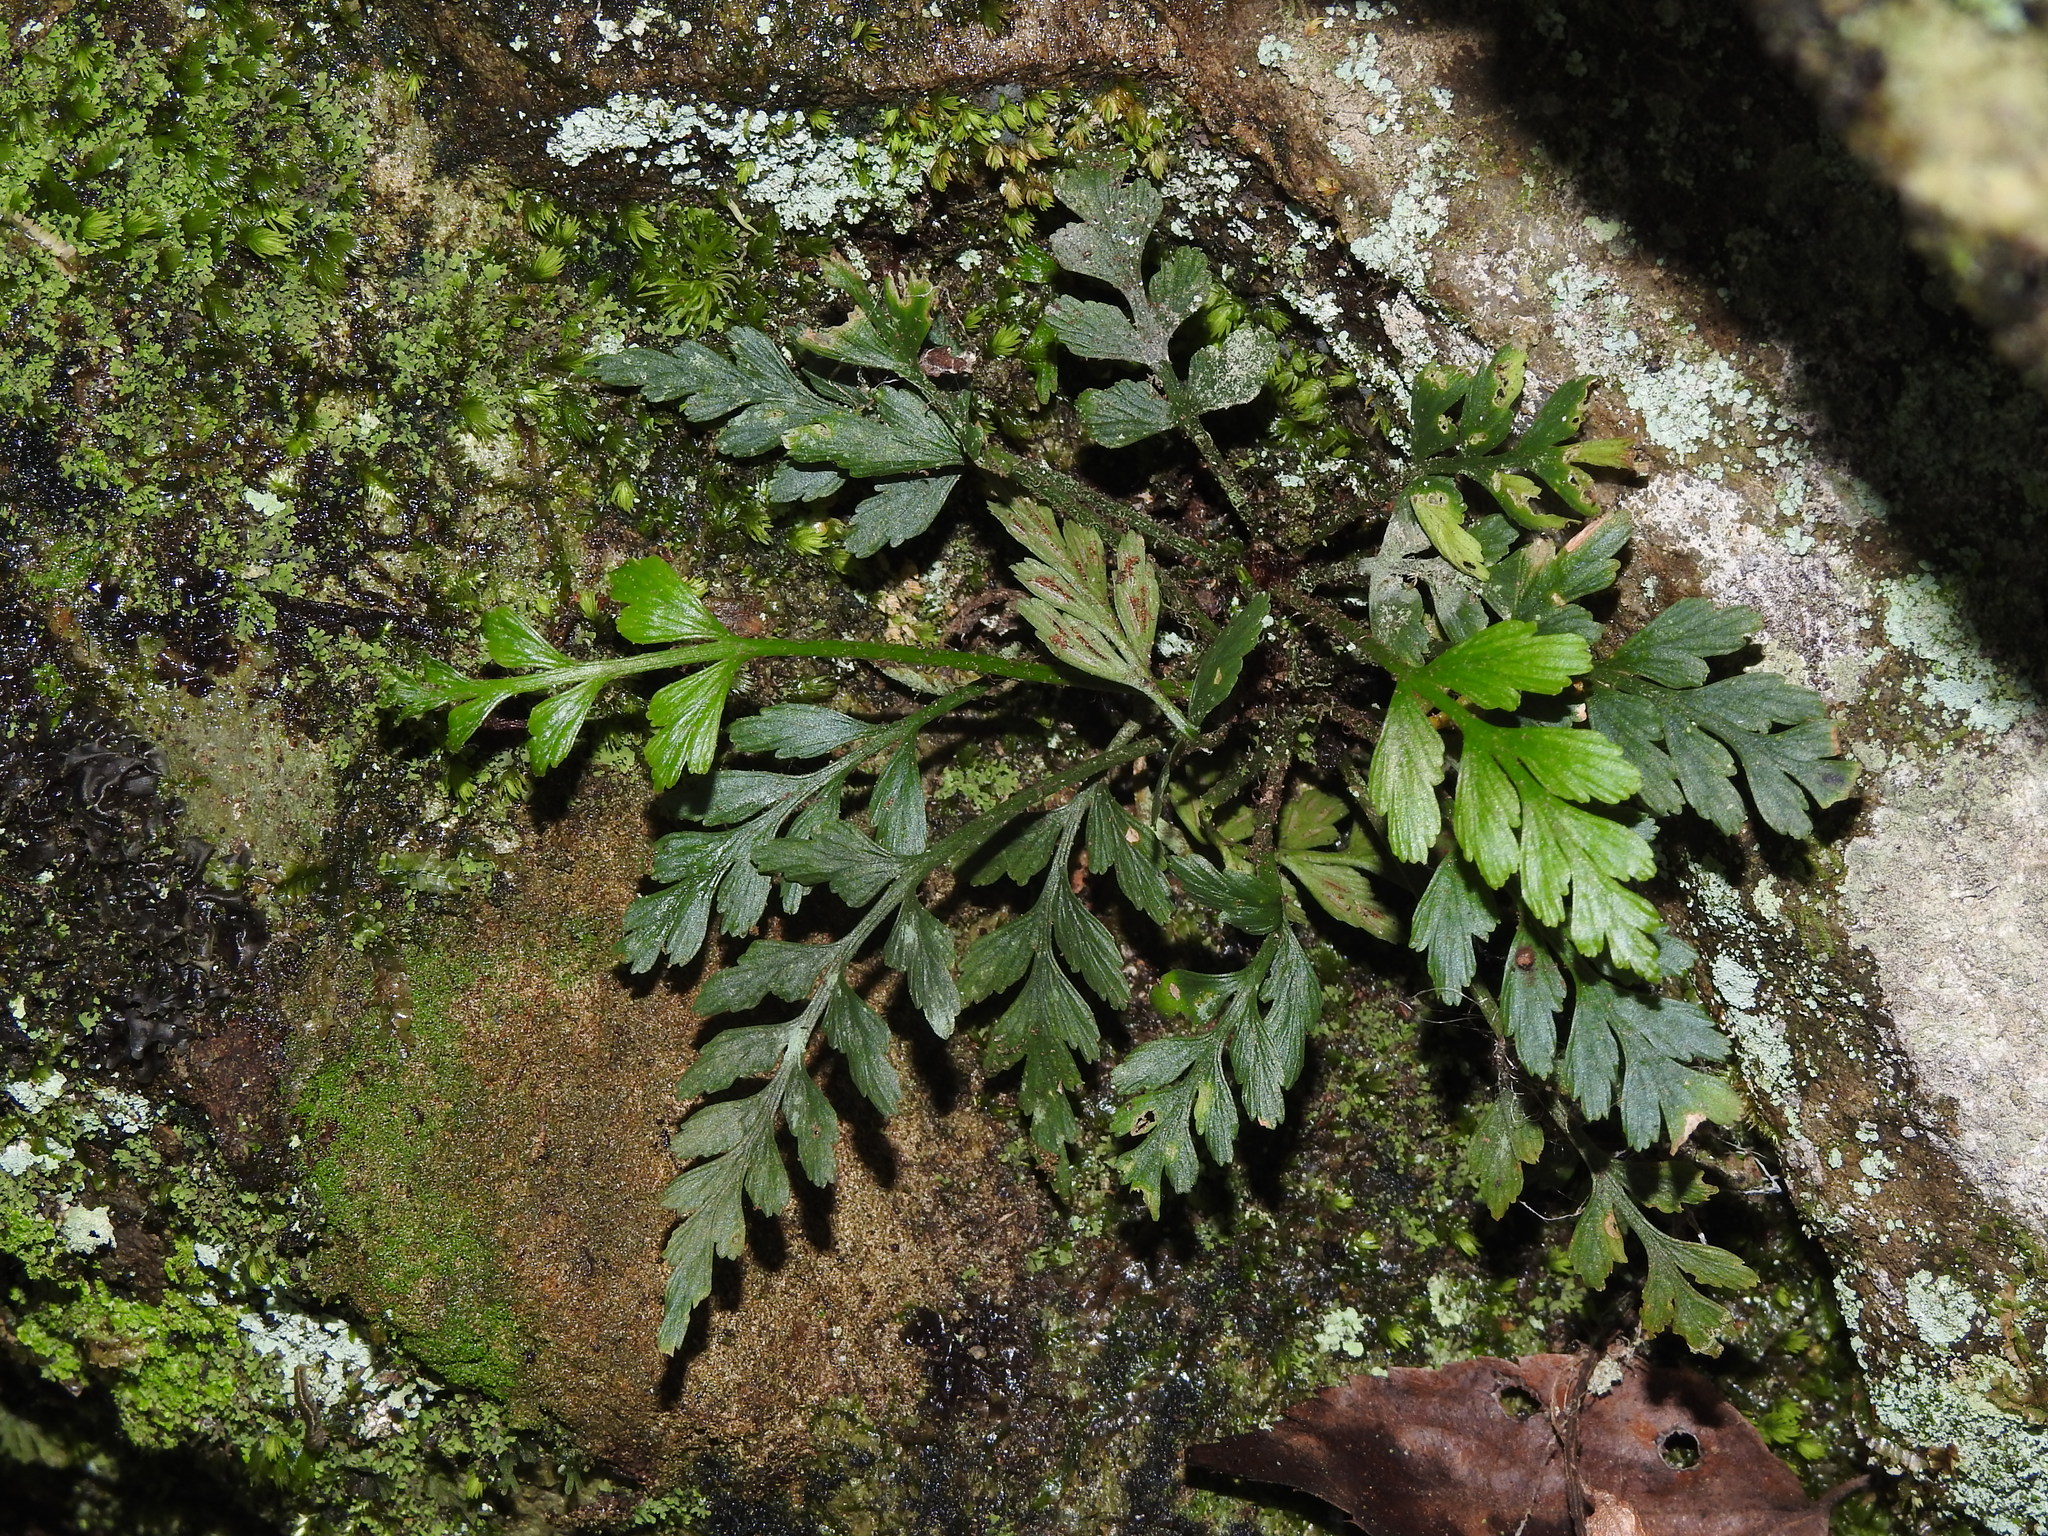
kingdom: Plantae
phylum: Tracheophyta
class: Polypodiopsida
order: Polypodiales
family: Aspleniaceae
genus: Asplenium
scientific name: Asplenium oldhamii
